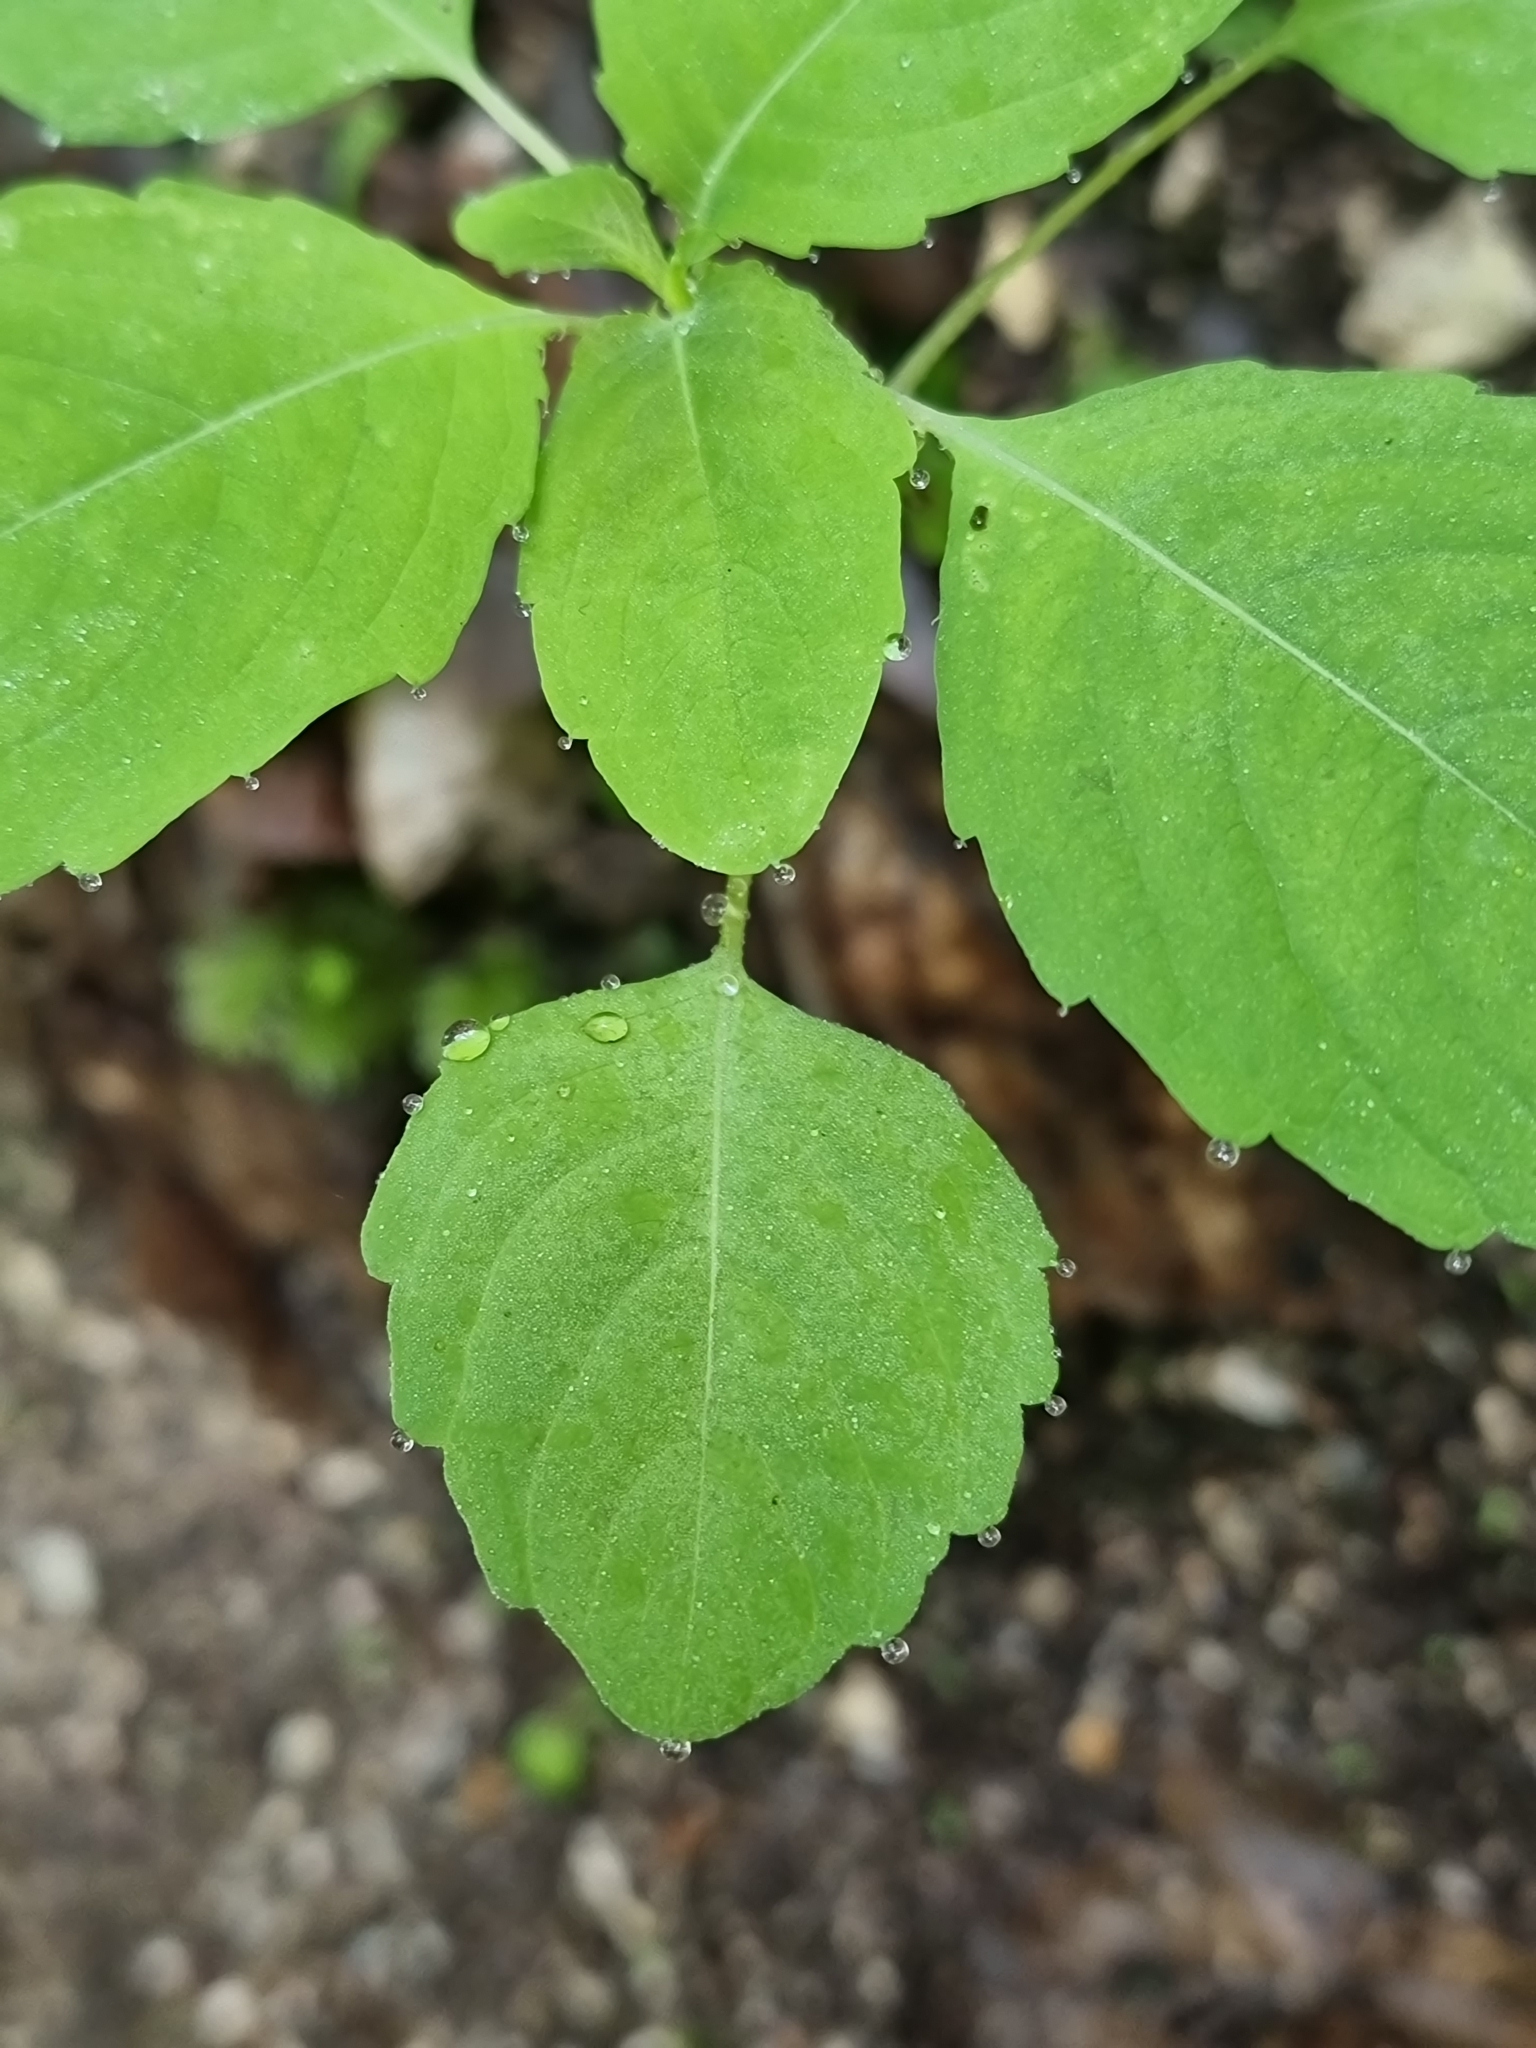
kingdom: Plantae
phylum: Tracheophyta
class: Magnoliopsida
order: Ericales
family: Balsaminaceae
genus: Impatiens
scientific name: Impatiens noli-tangere
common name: Touch-me-not balsam
